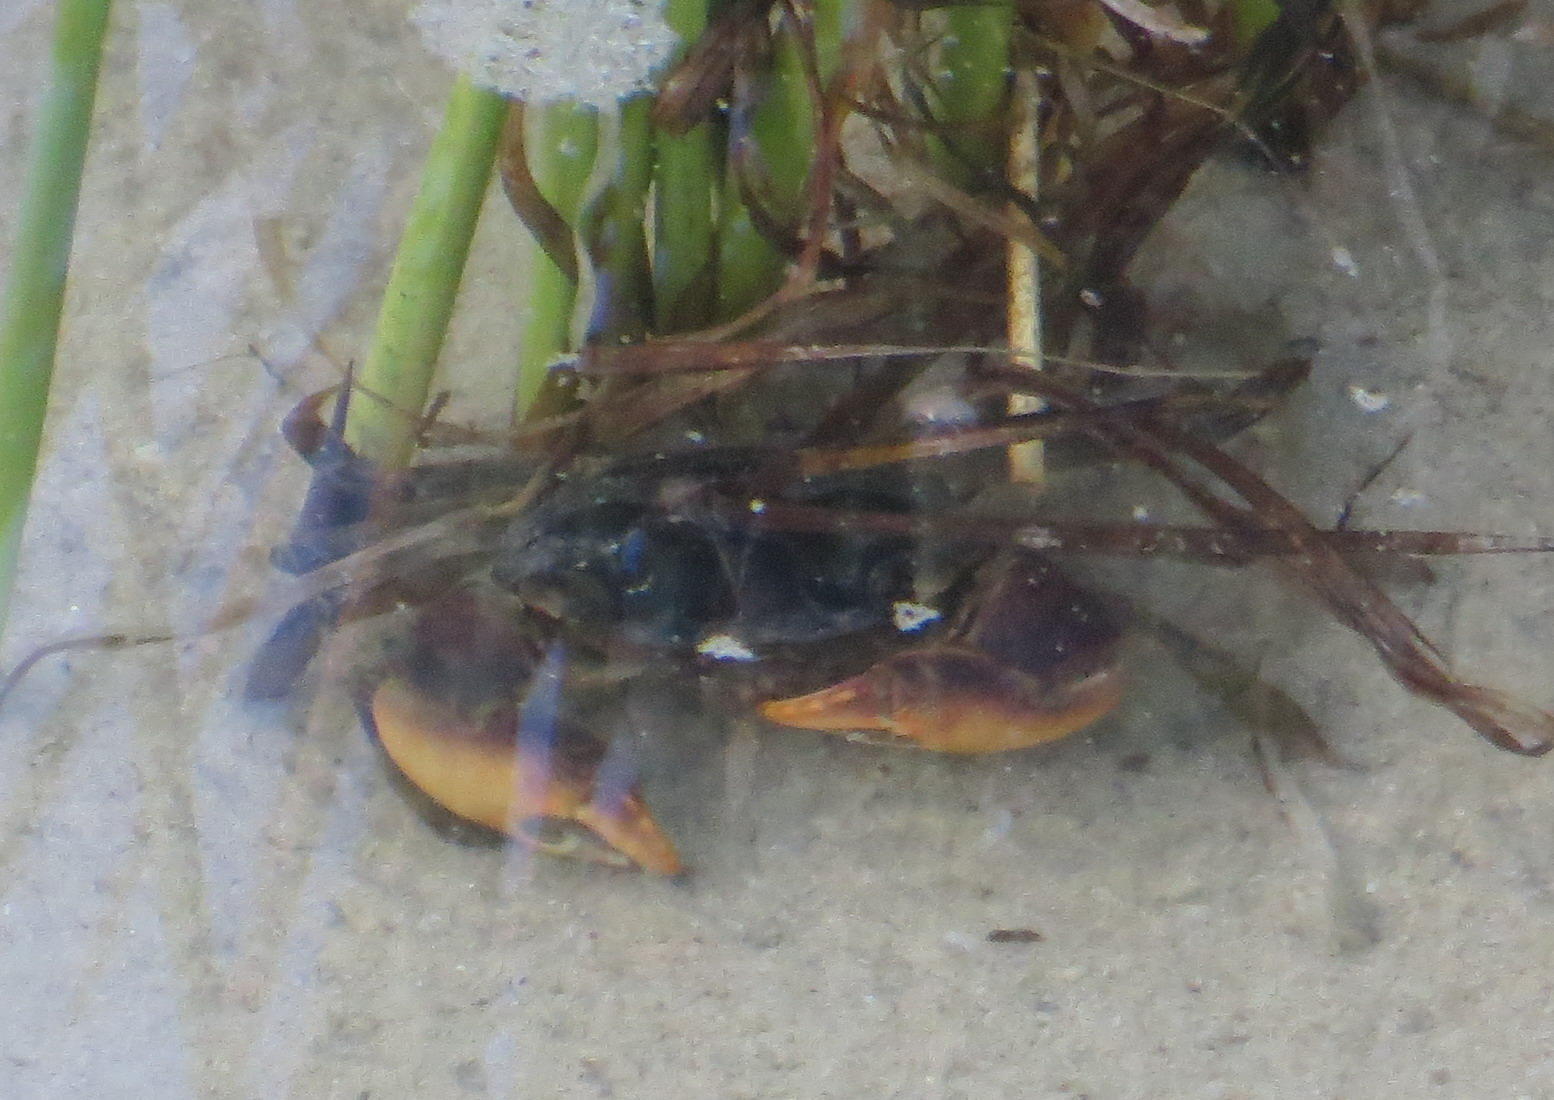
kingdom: Animalia
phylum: Arthropoda
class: Malacostraca
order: Decapoda
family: Sesarmidae
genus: Parasesarma
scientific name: Parasesarma catenatum
